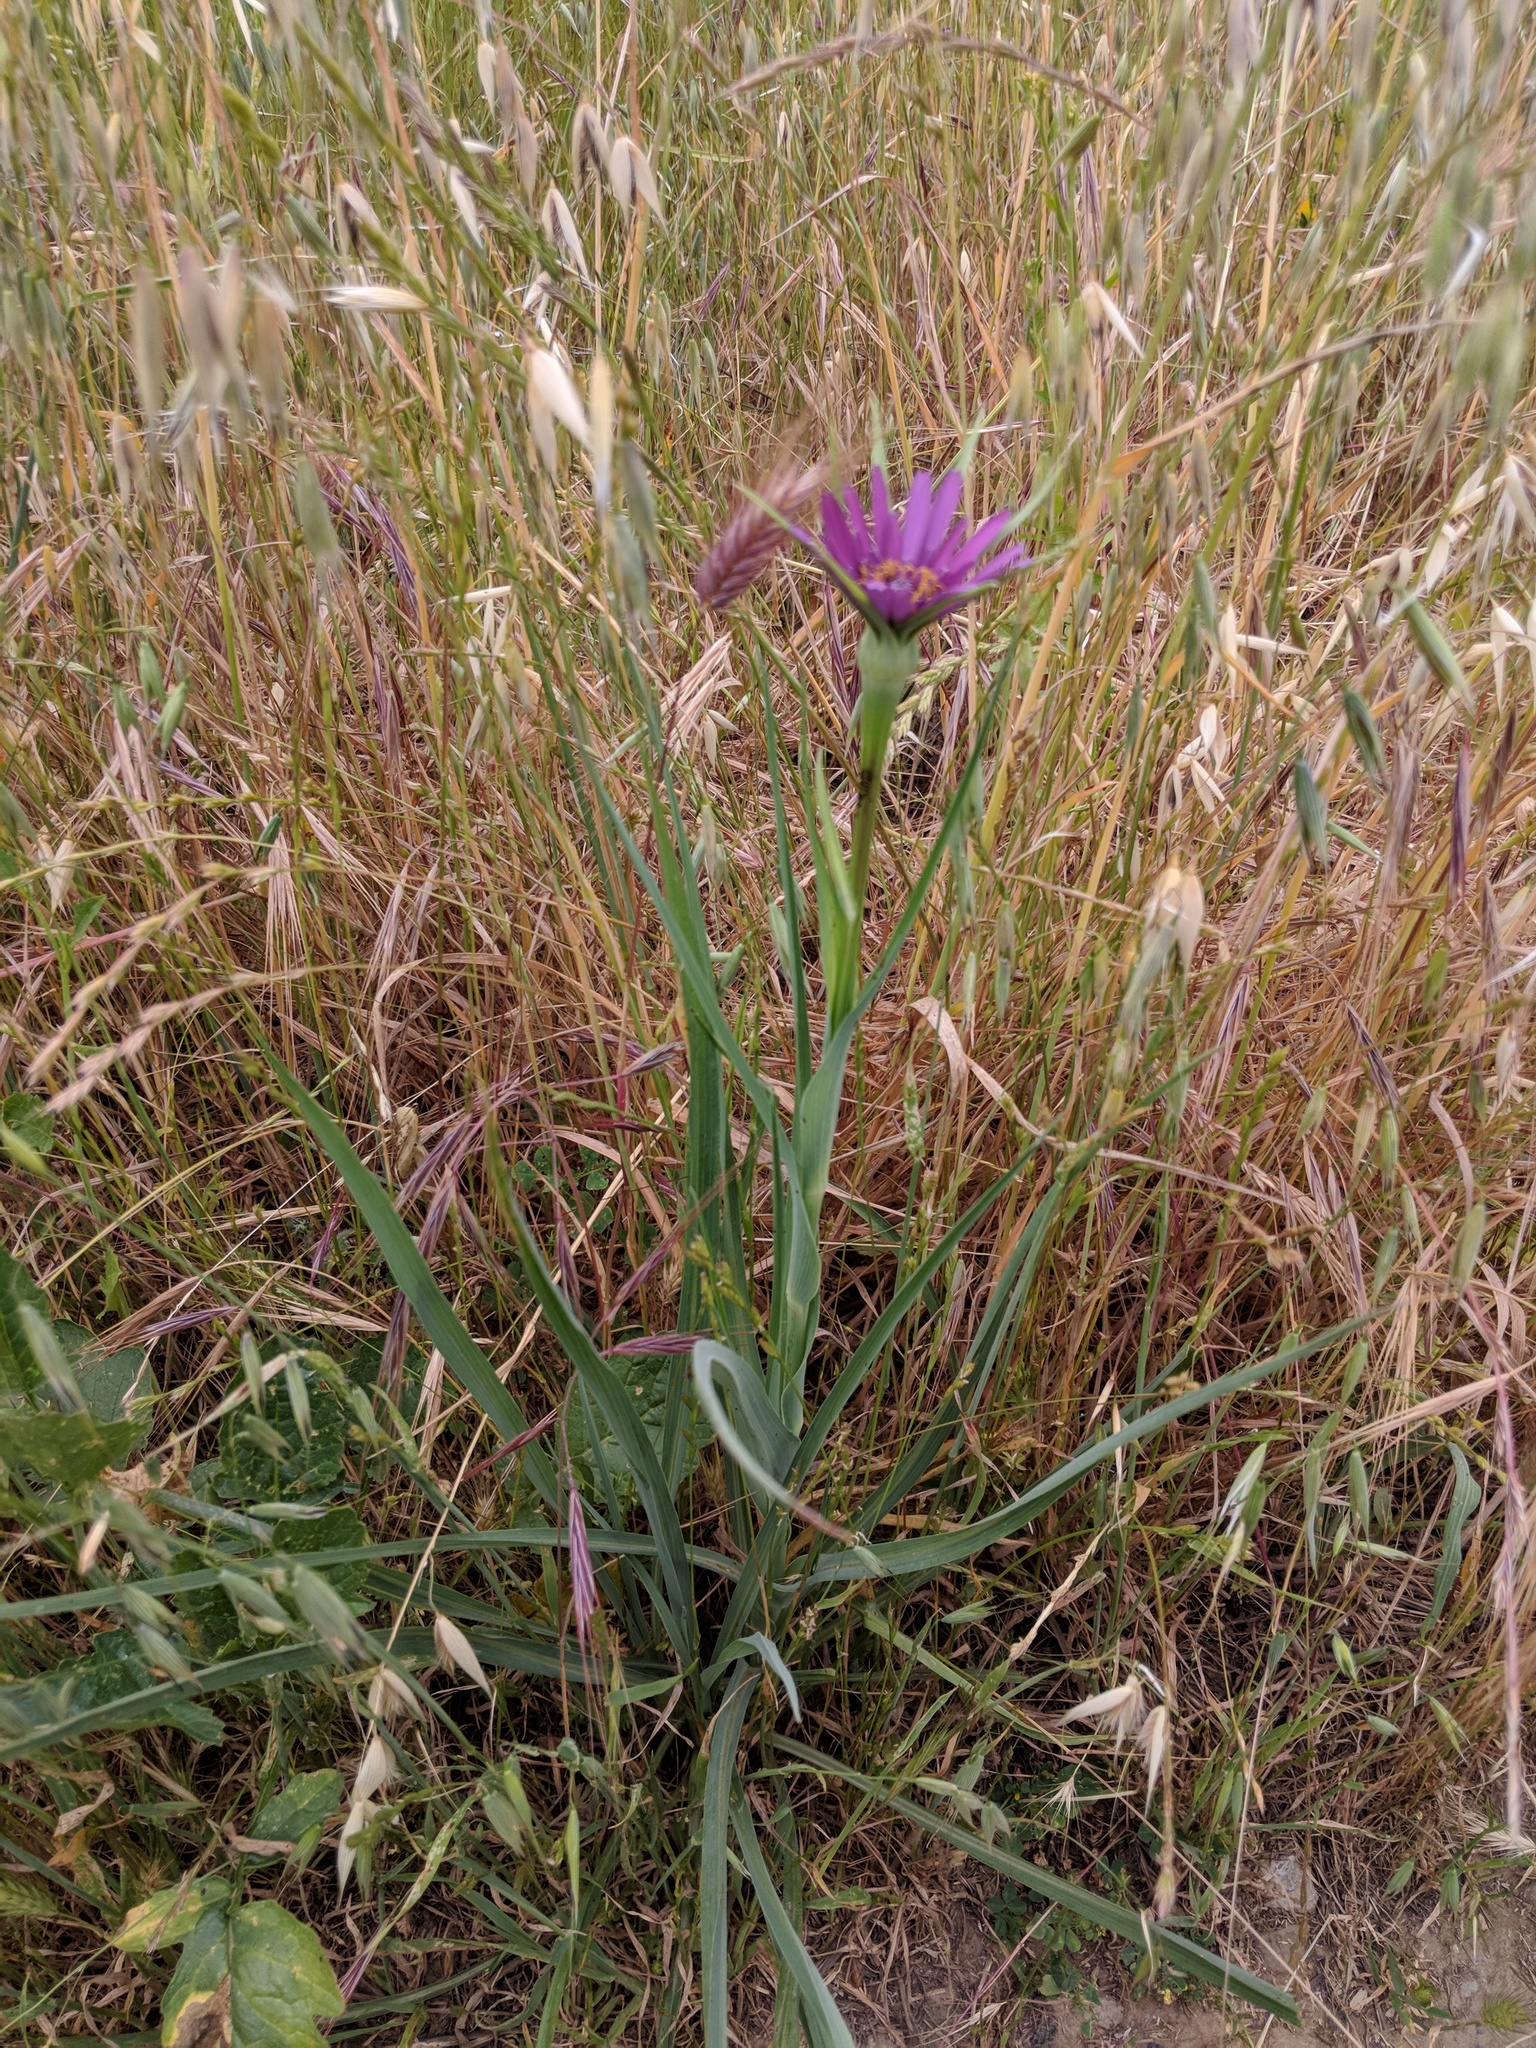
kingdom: Plantae
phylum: Tracheophyta
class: Magnoliopsida
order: Asterales
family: Asteraceae
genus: Tragopogon
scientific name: Tragopogon porrifolius
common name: Salsify
